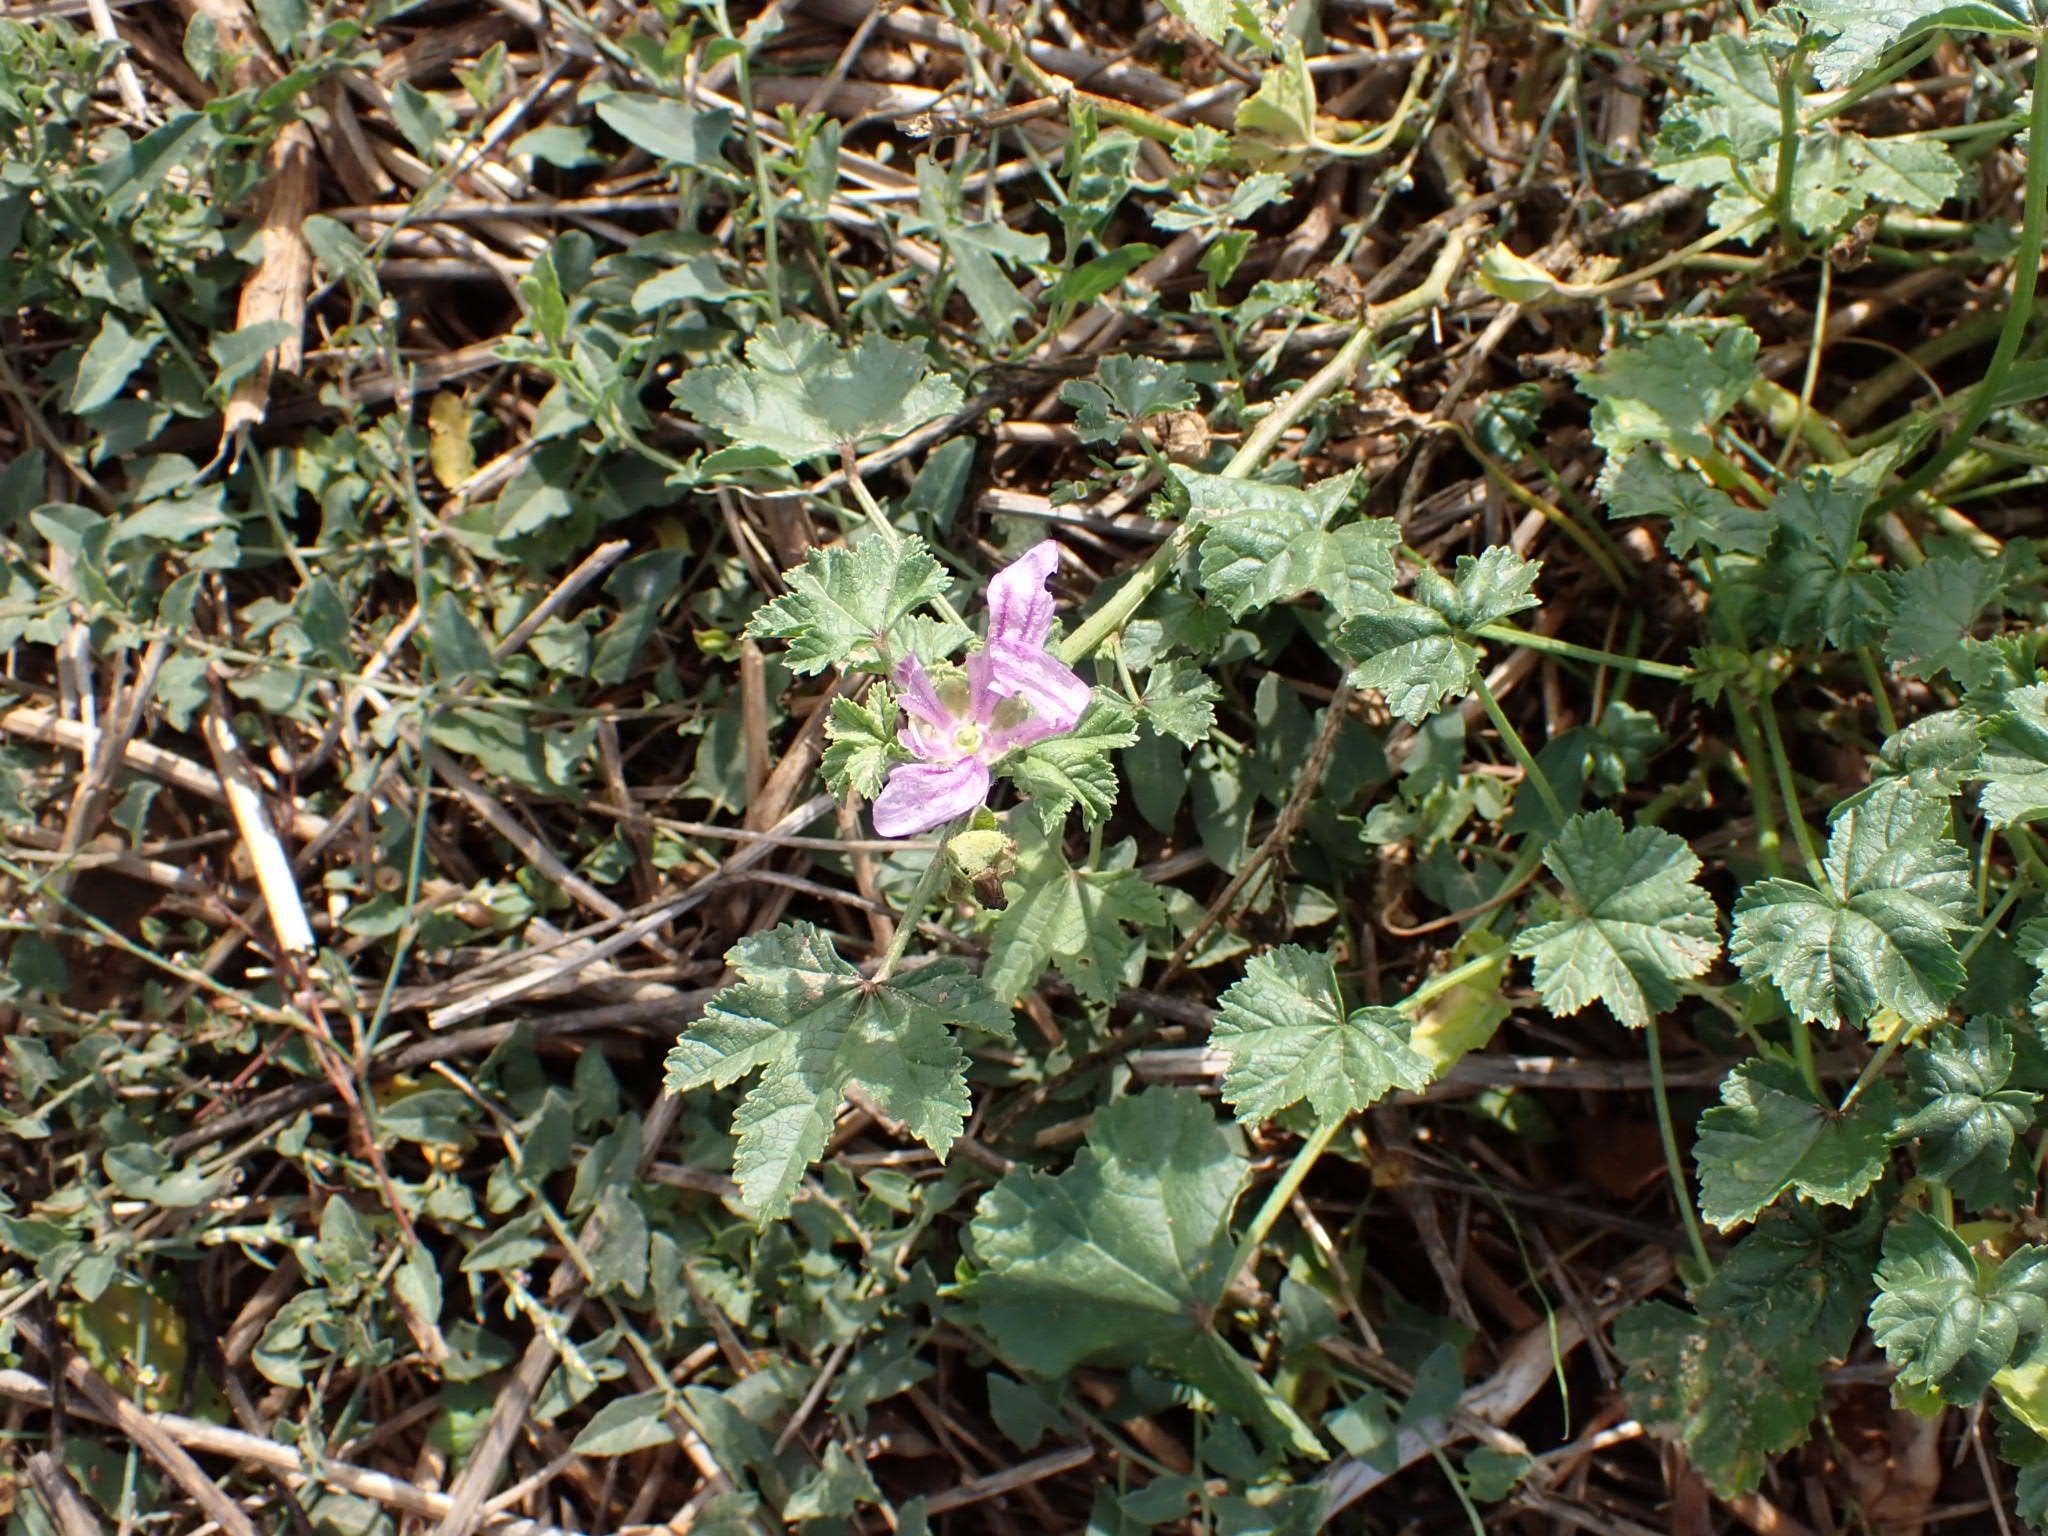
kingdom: Plantae
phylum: Tracheophyta
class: Magnoliopsida
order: Malvales
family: Malvaceae
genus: Malva
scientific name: Malva sylvestris
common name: Common mallow
